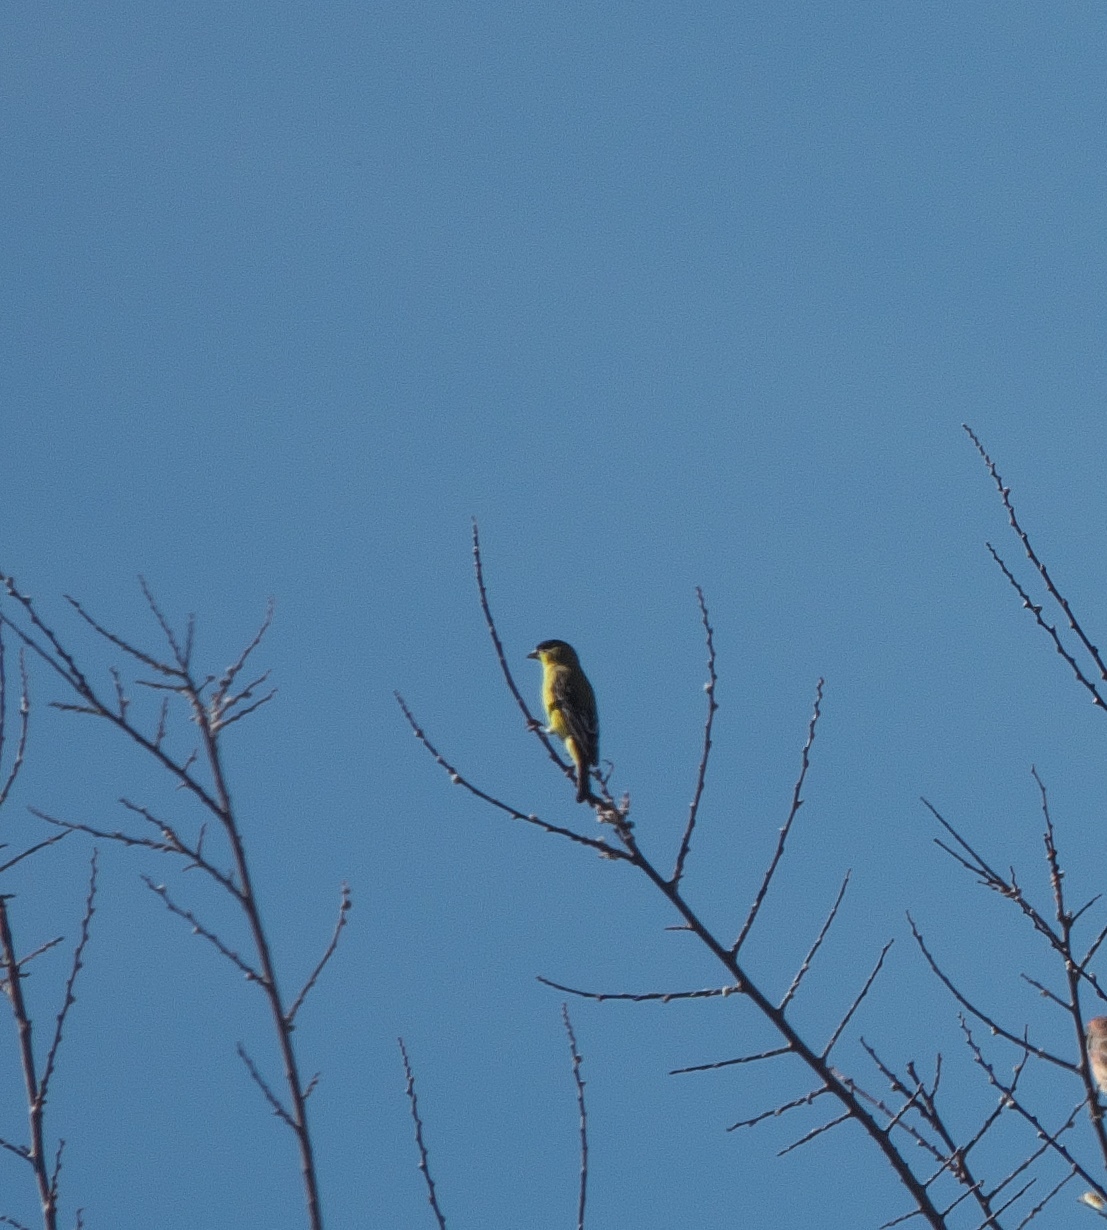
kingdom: Animalia
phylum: Chordata
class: Aves
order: Passeriformes
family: Fringillidae
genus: Spinus
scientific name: Spinus psaltria
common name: Lesser goldfinch
